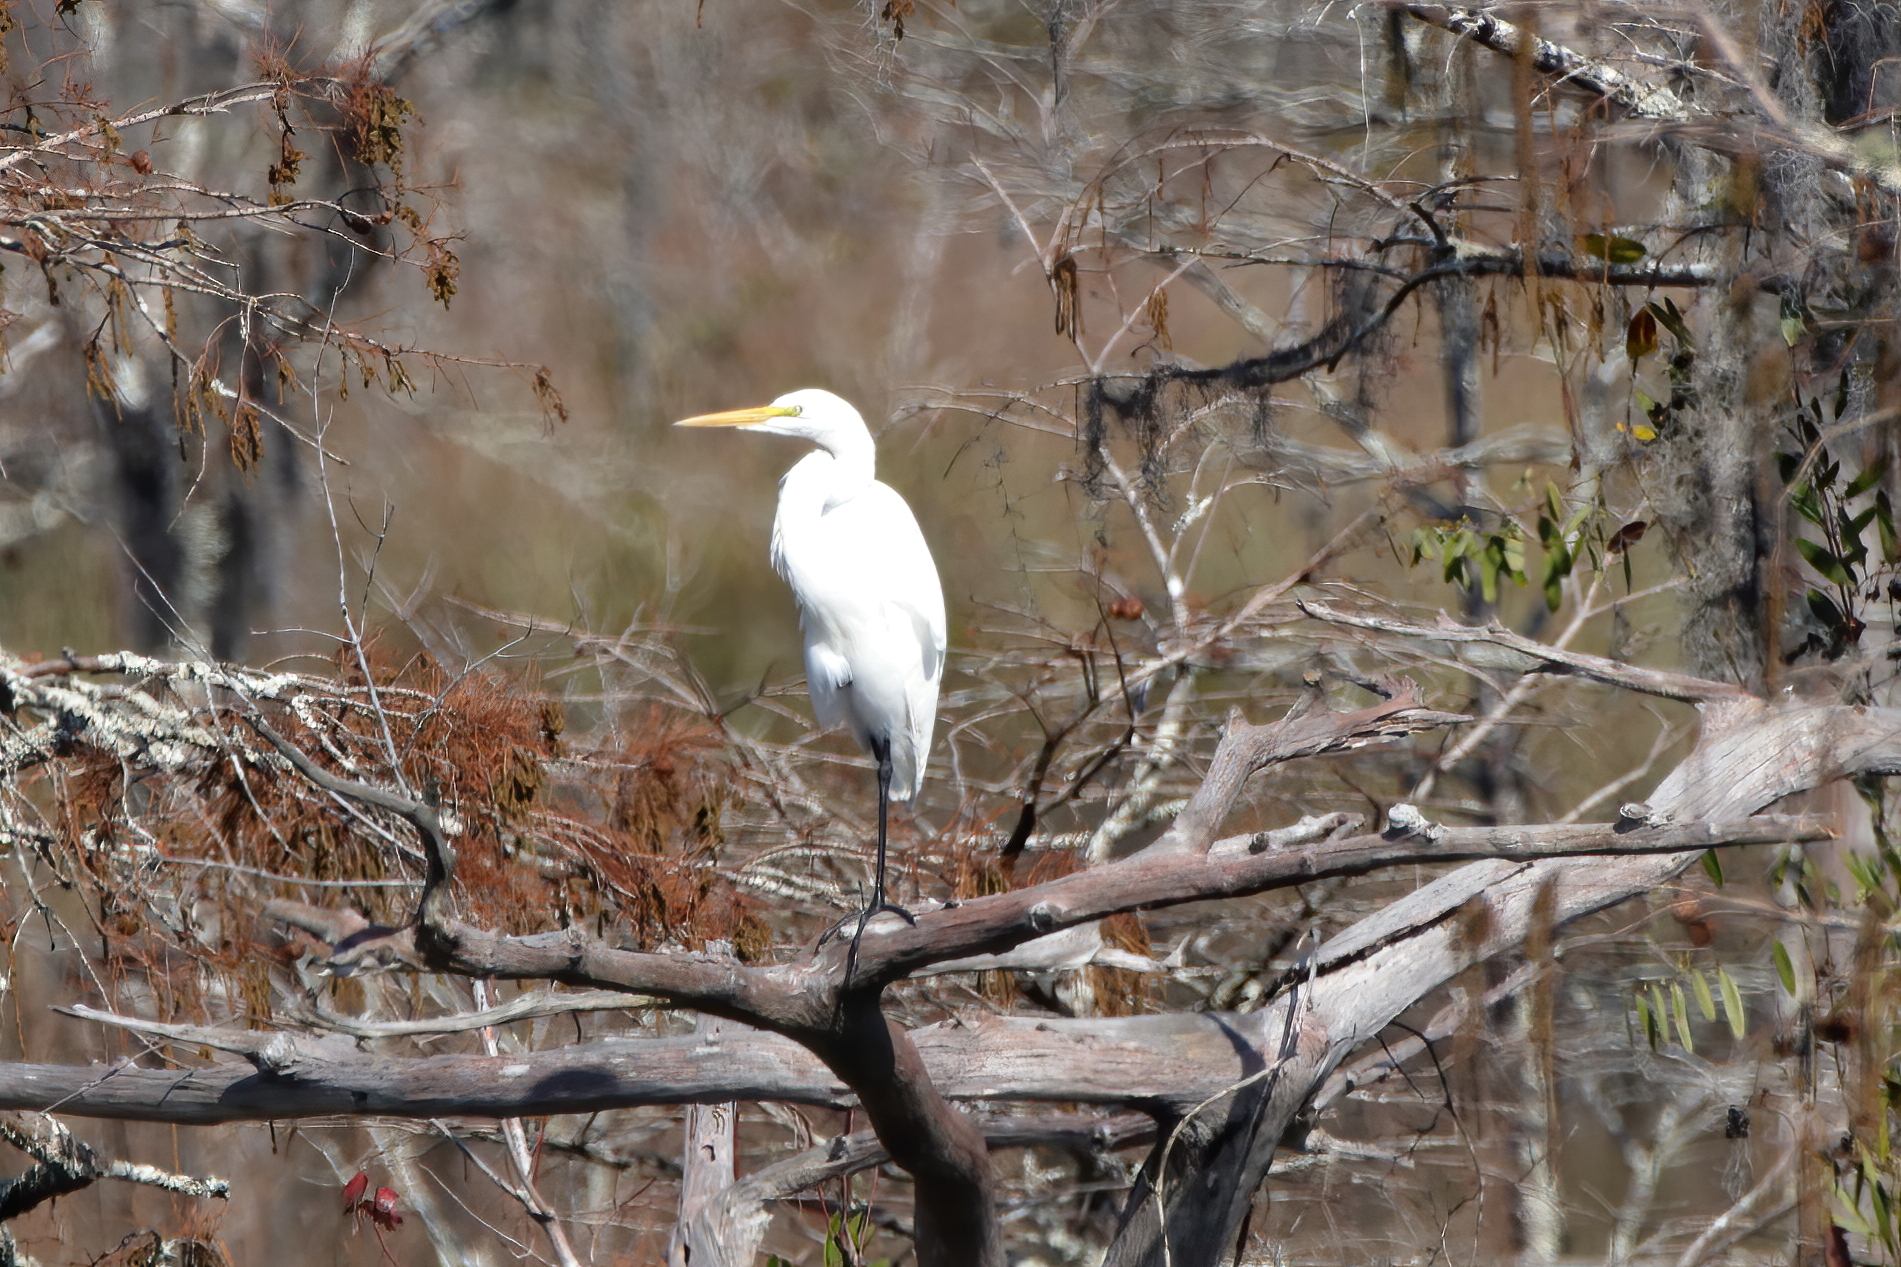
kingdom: Animalia
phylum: Chordata
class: Aves
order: Pelecaniformes
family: Ardeidae
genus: Ardea
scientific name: Ardea alba
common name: Great egret
